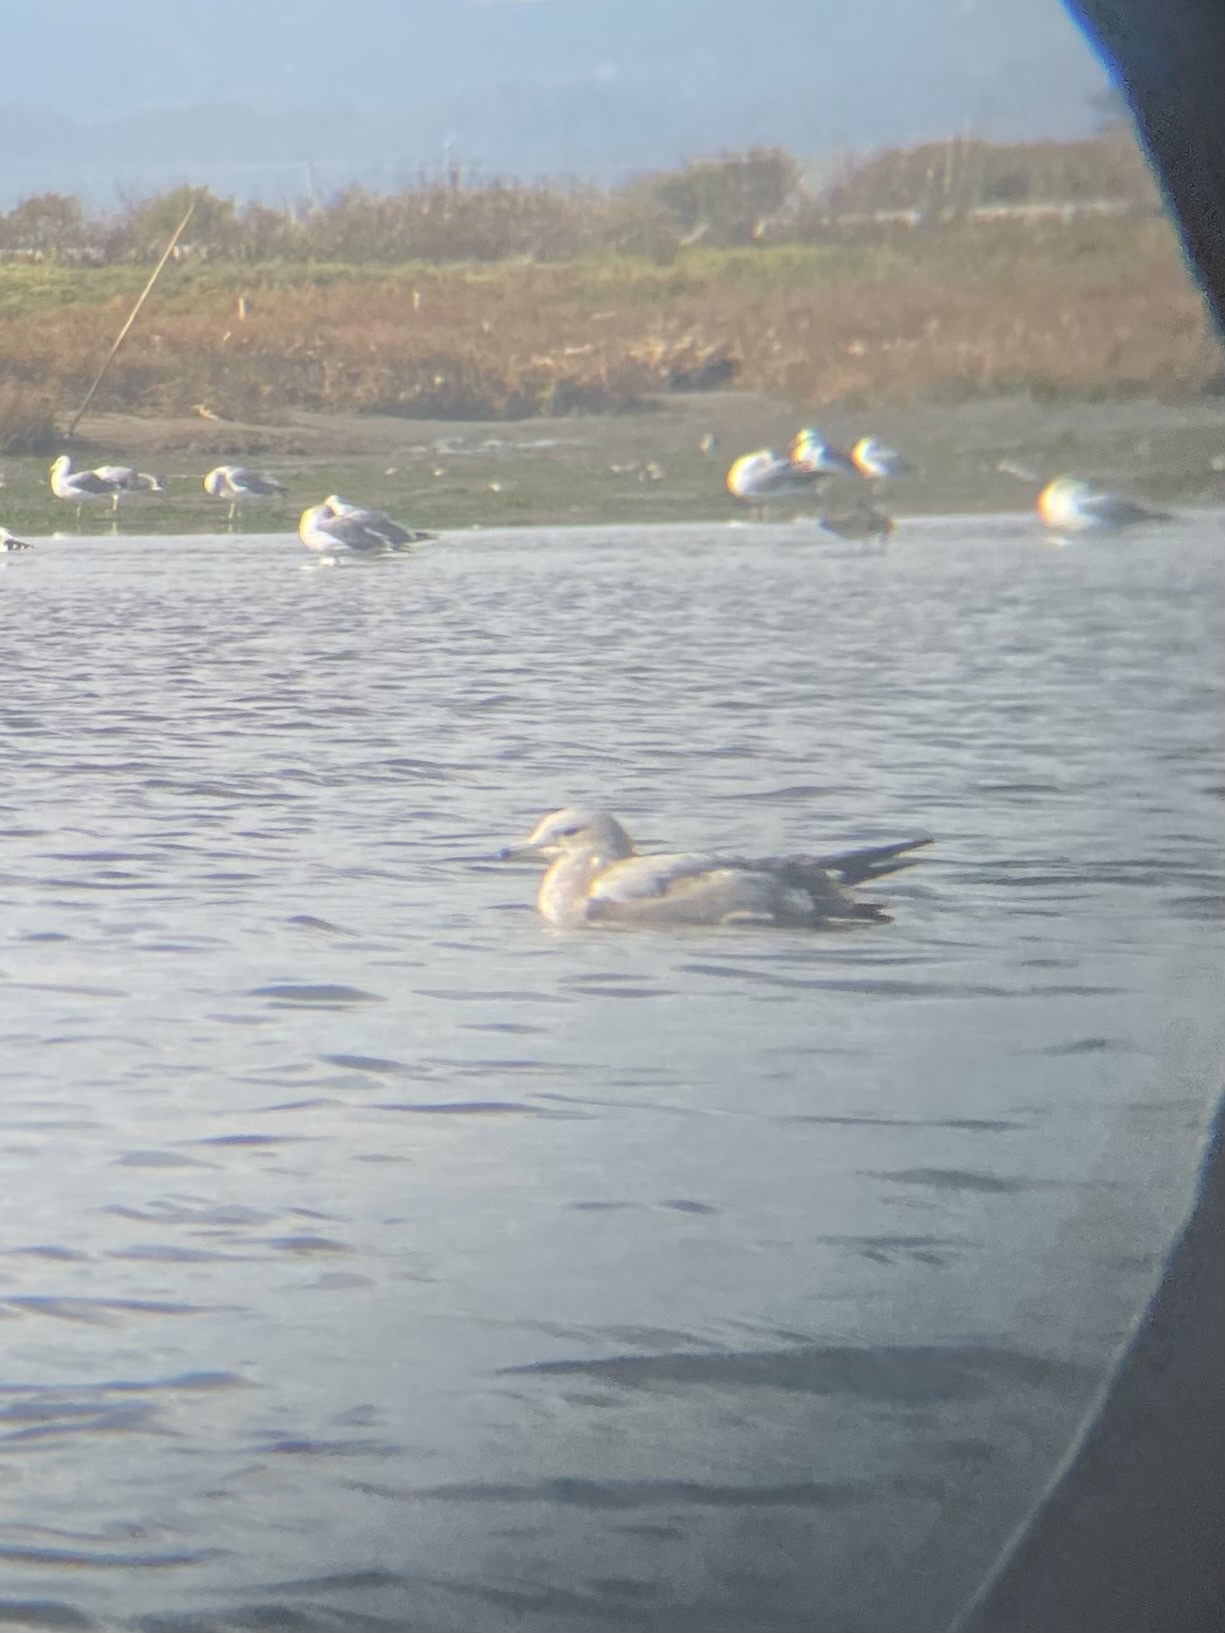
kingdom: Animalia
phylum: Chordata
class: Aves
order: Charadriiformes
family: Laridae
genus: Larus
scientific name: Larus californicus
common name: California gull
